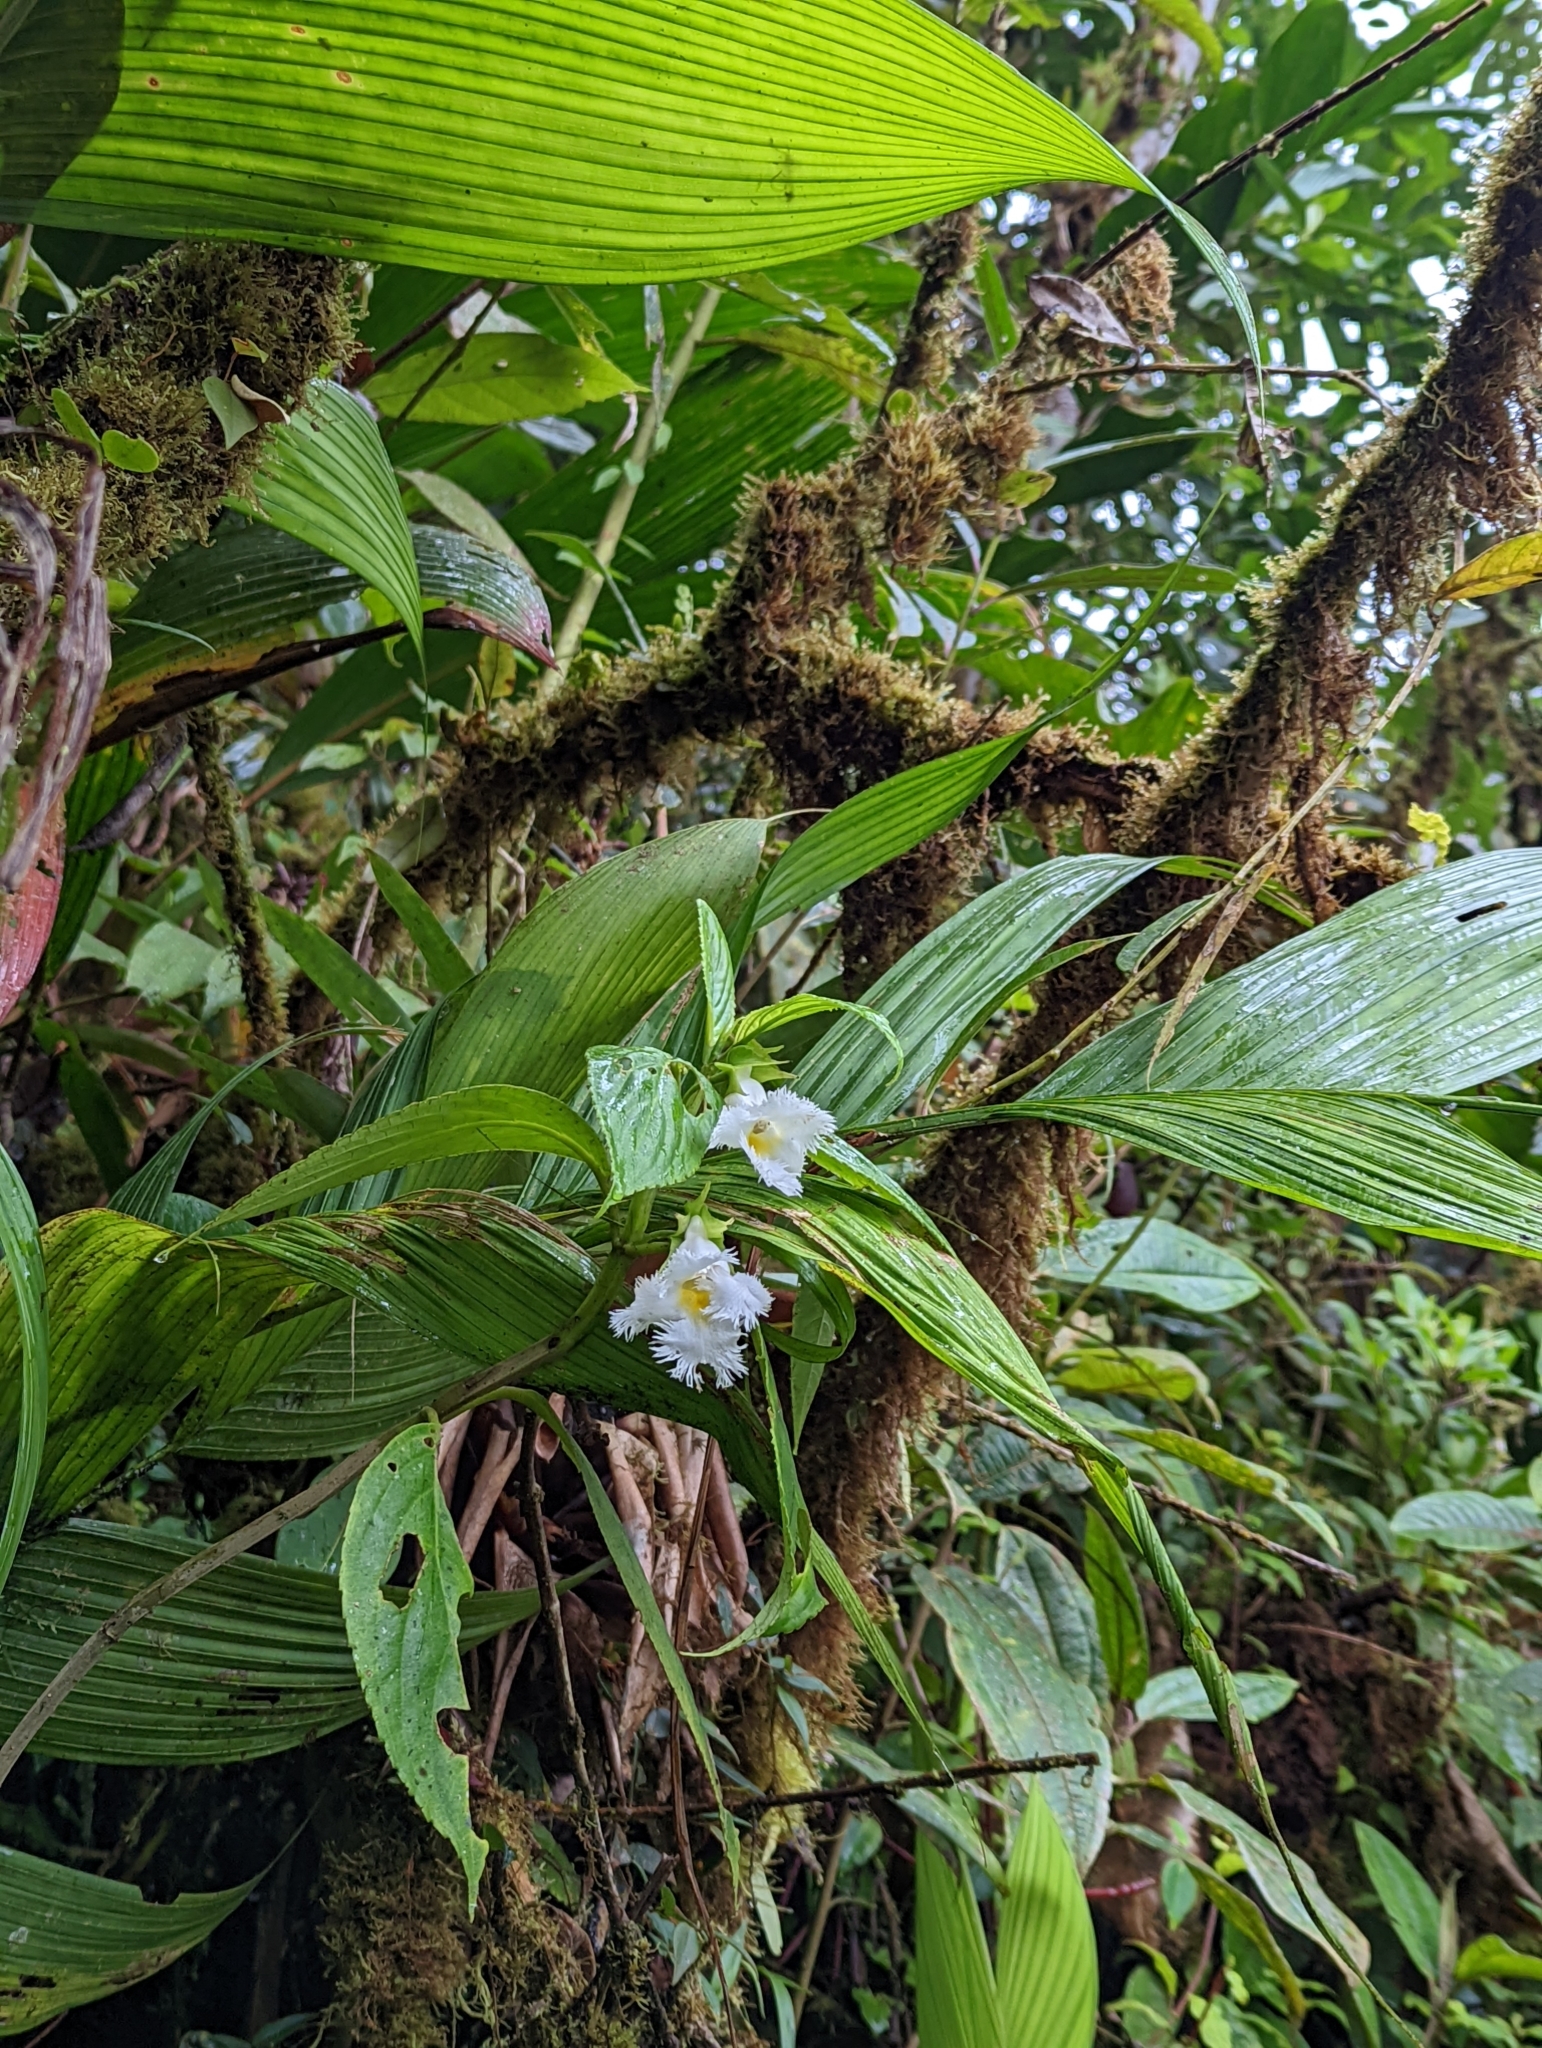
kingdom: Plantae
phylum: Tracheophyta
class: Magnoliopsida
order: Lamiales
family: Gesneriaceae
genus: Drymonia
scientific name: Drymonia serrulata
